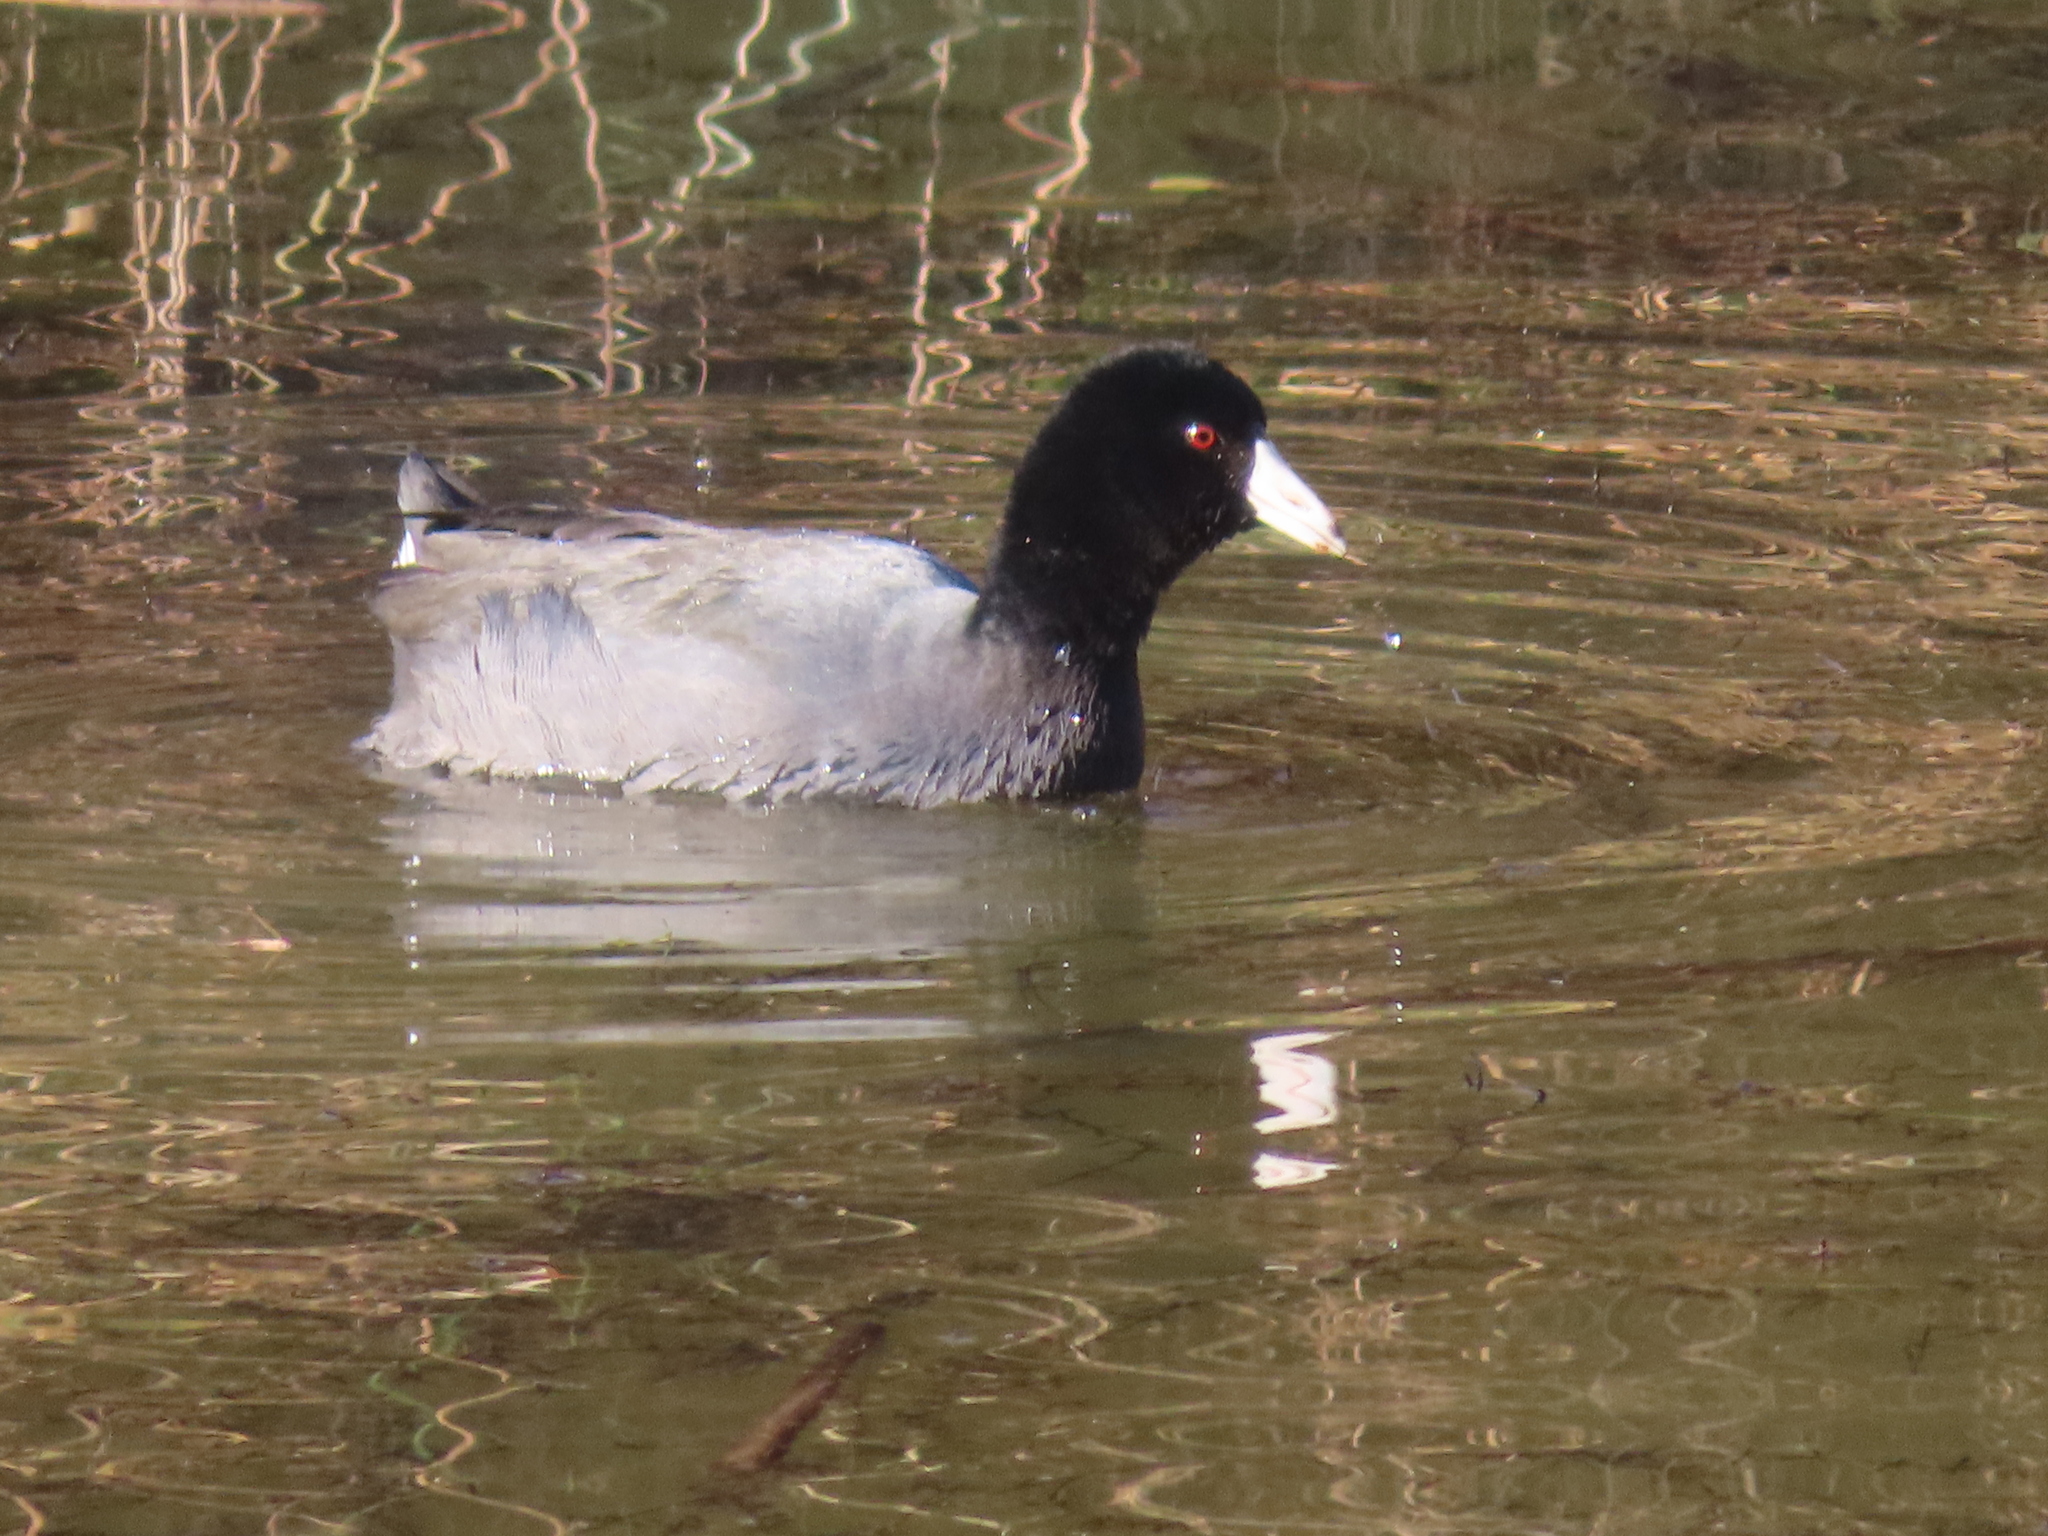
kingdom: Animalia
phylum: Chordata
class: Aves
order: Gruiformes
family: Rallidae
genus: Fulica
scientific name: Fulica americana
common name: American coot
